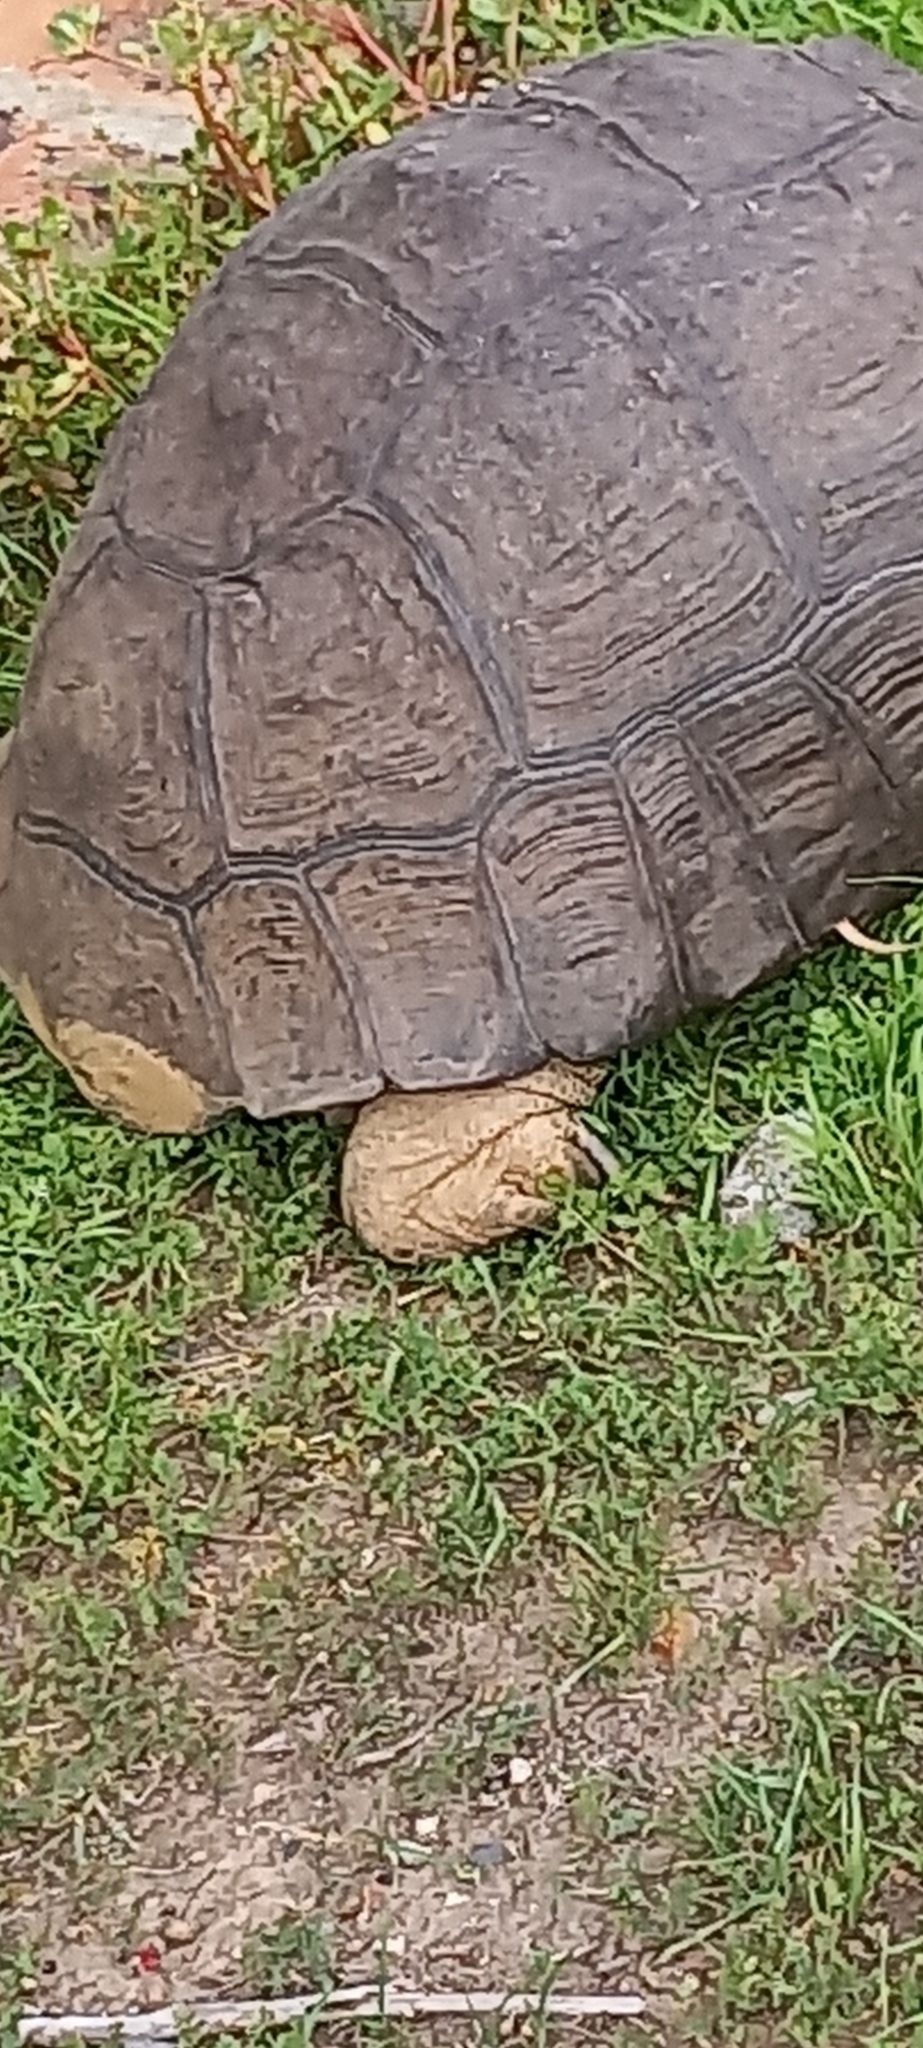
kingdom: Animalia
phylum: Chordata
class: Testudines
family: Testudinidae
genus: Stigmochelys
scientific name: Stigmochelys pardalis
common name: Leopard tortoise
